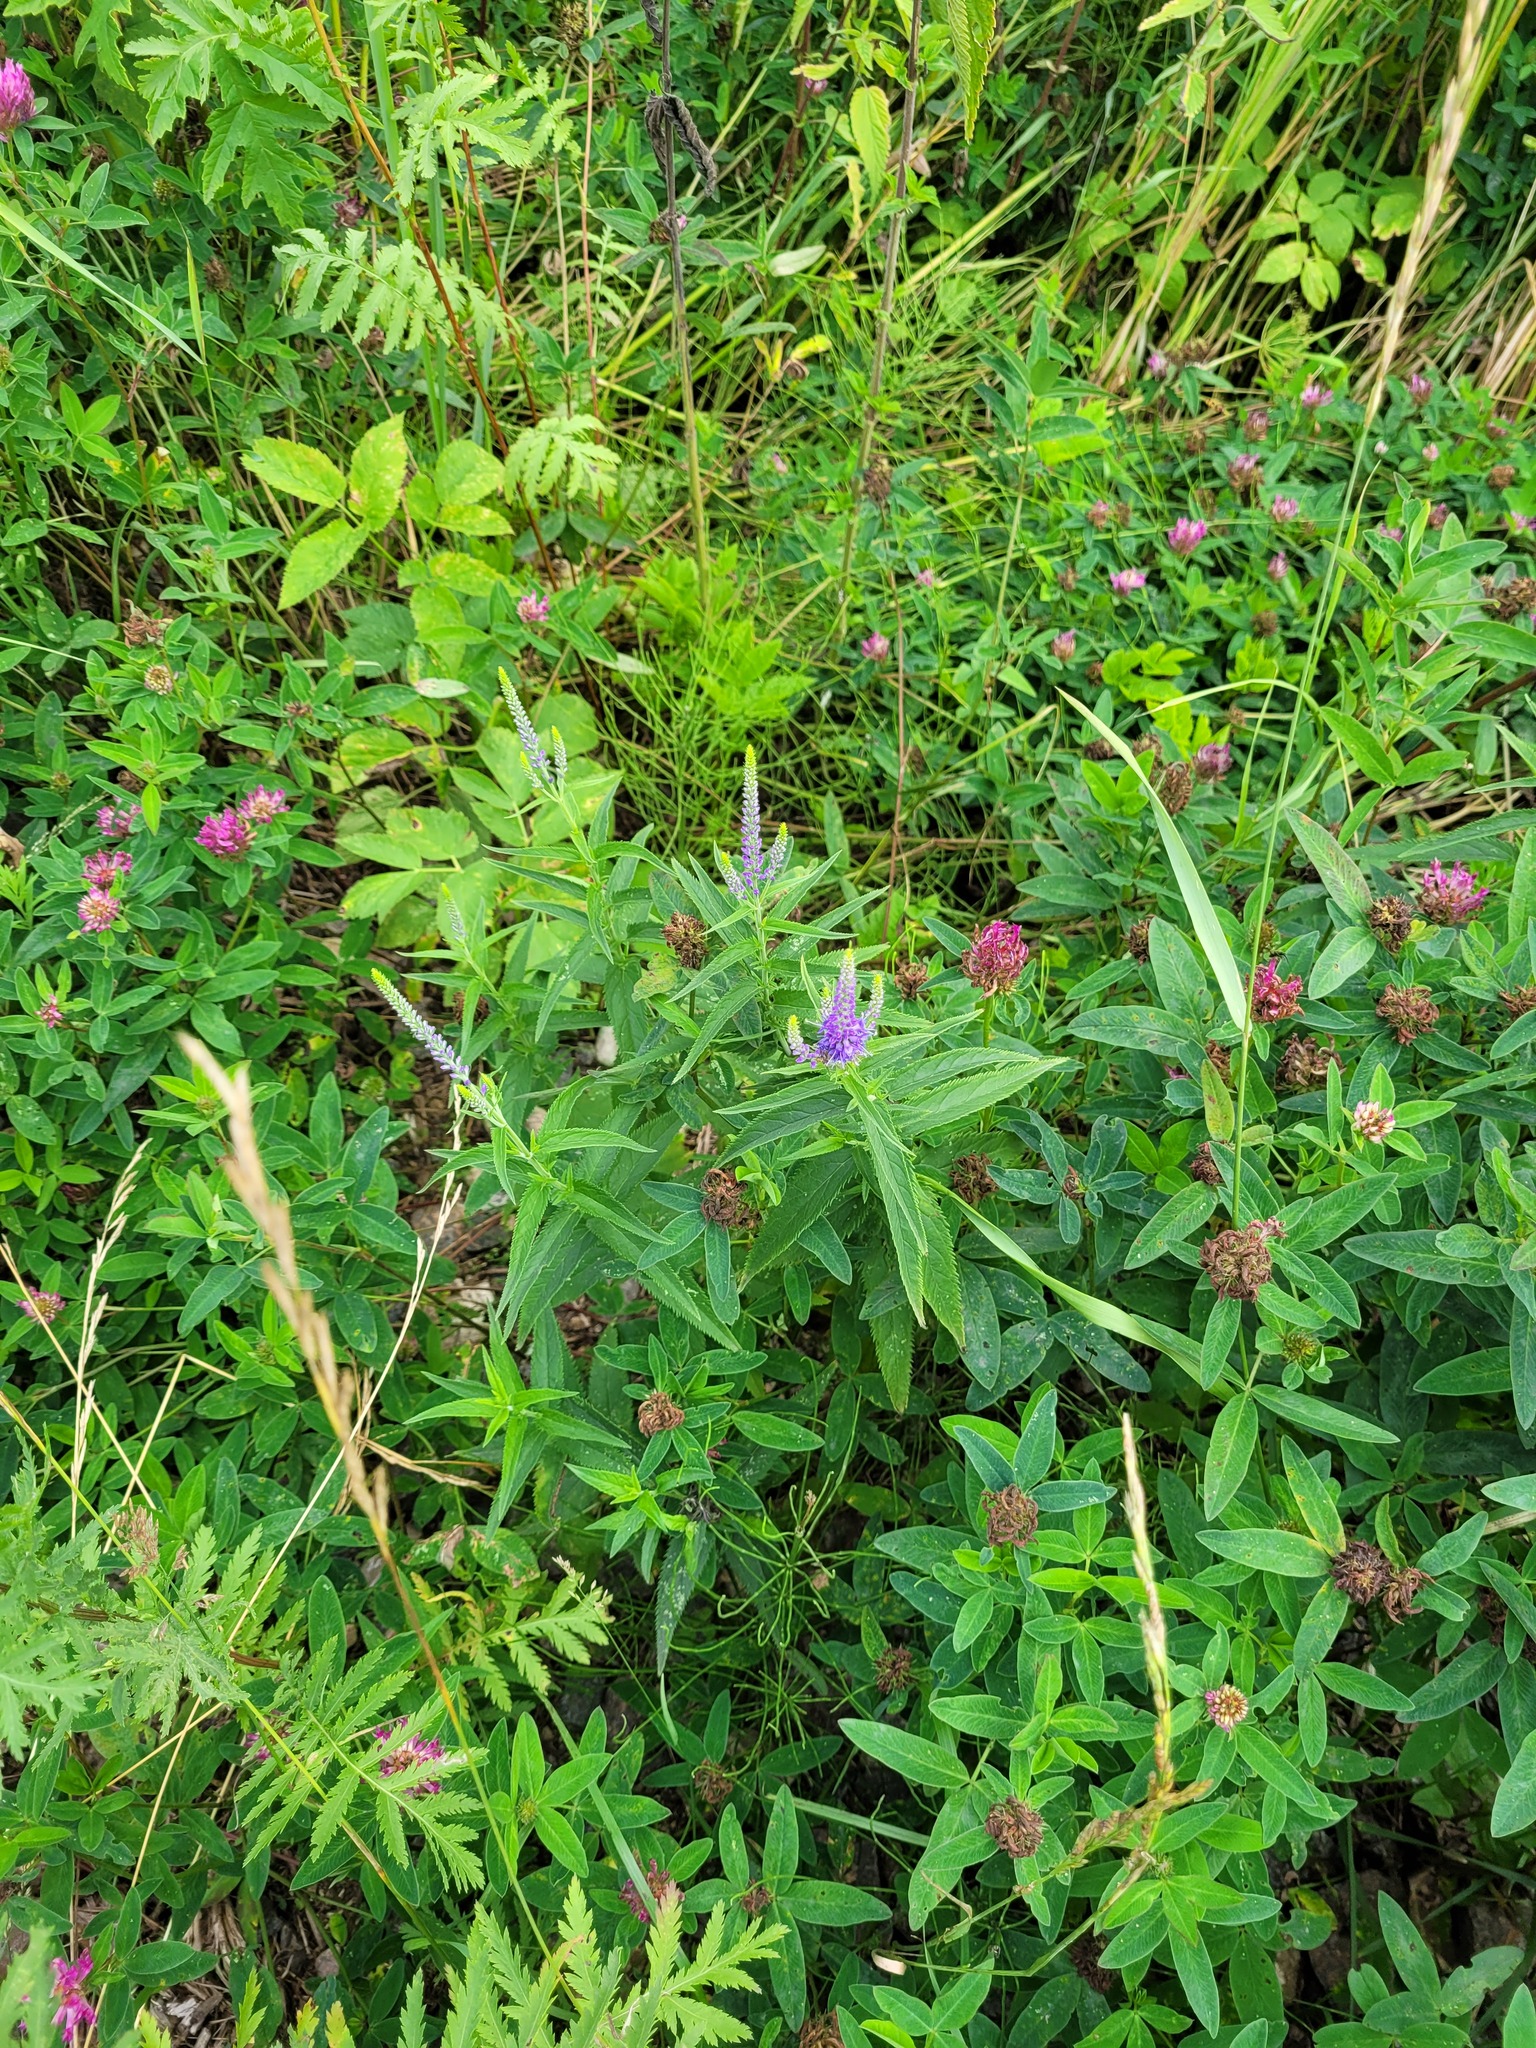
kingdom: Plantae
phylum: Tracheophyta
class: Magnoliopsida
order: Lamiales
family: Plantaginaceae
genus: Veronica
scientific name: Veronica longifolia
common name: Garden speedwell
